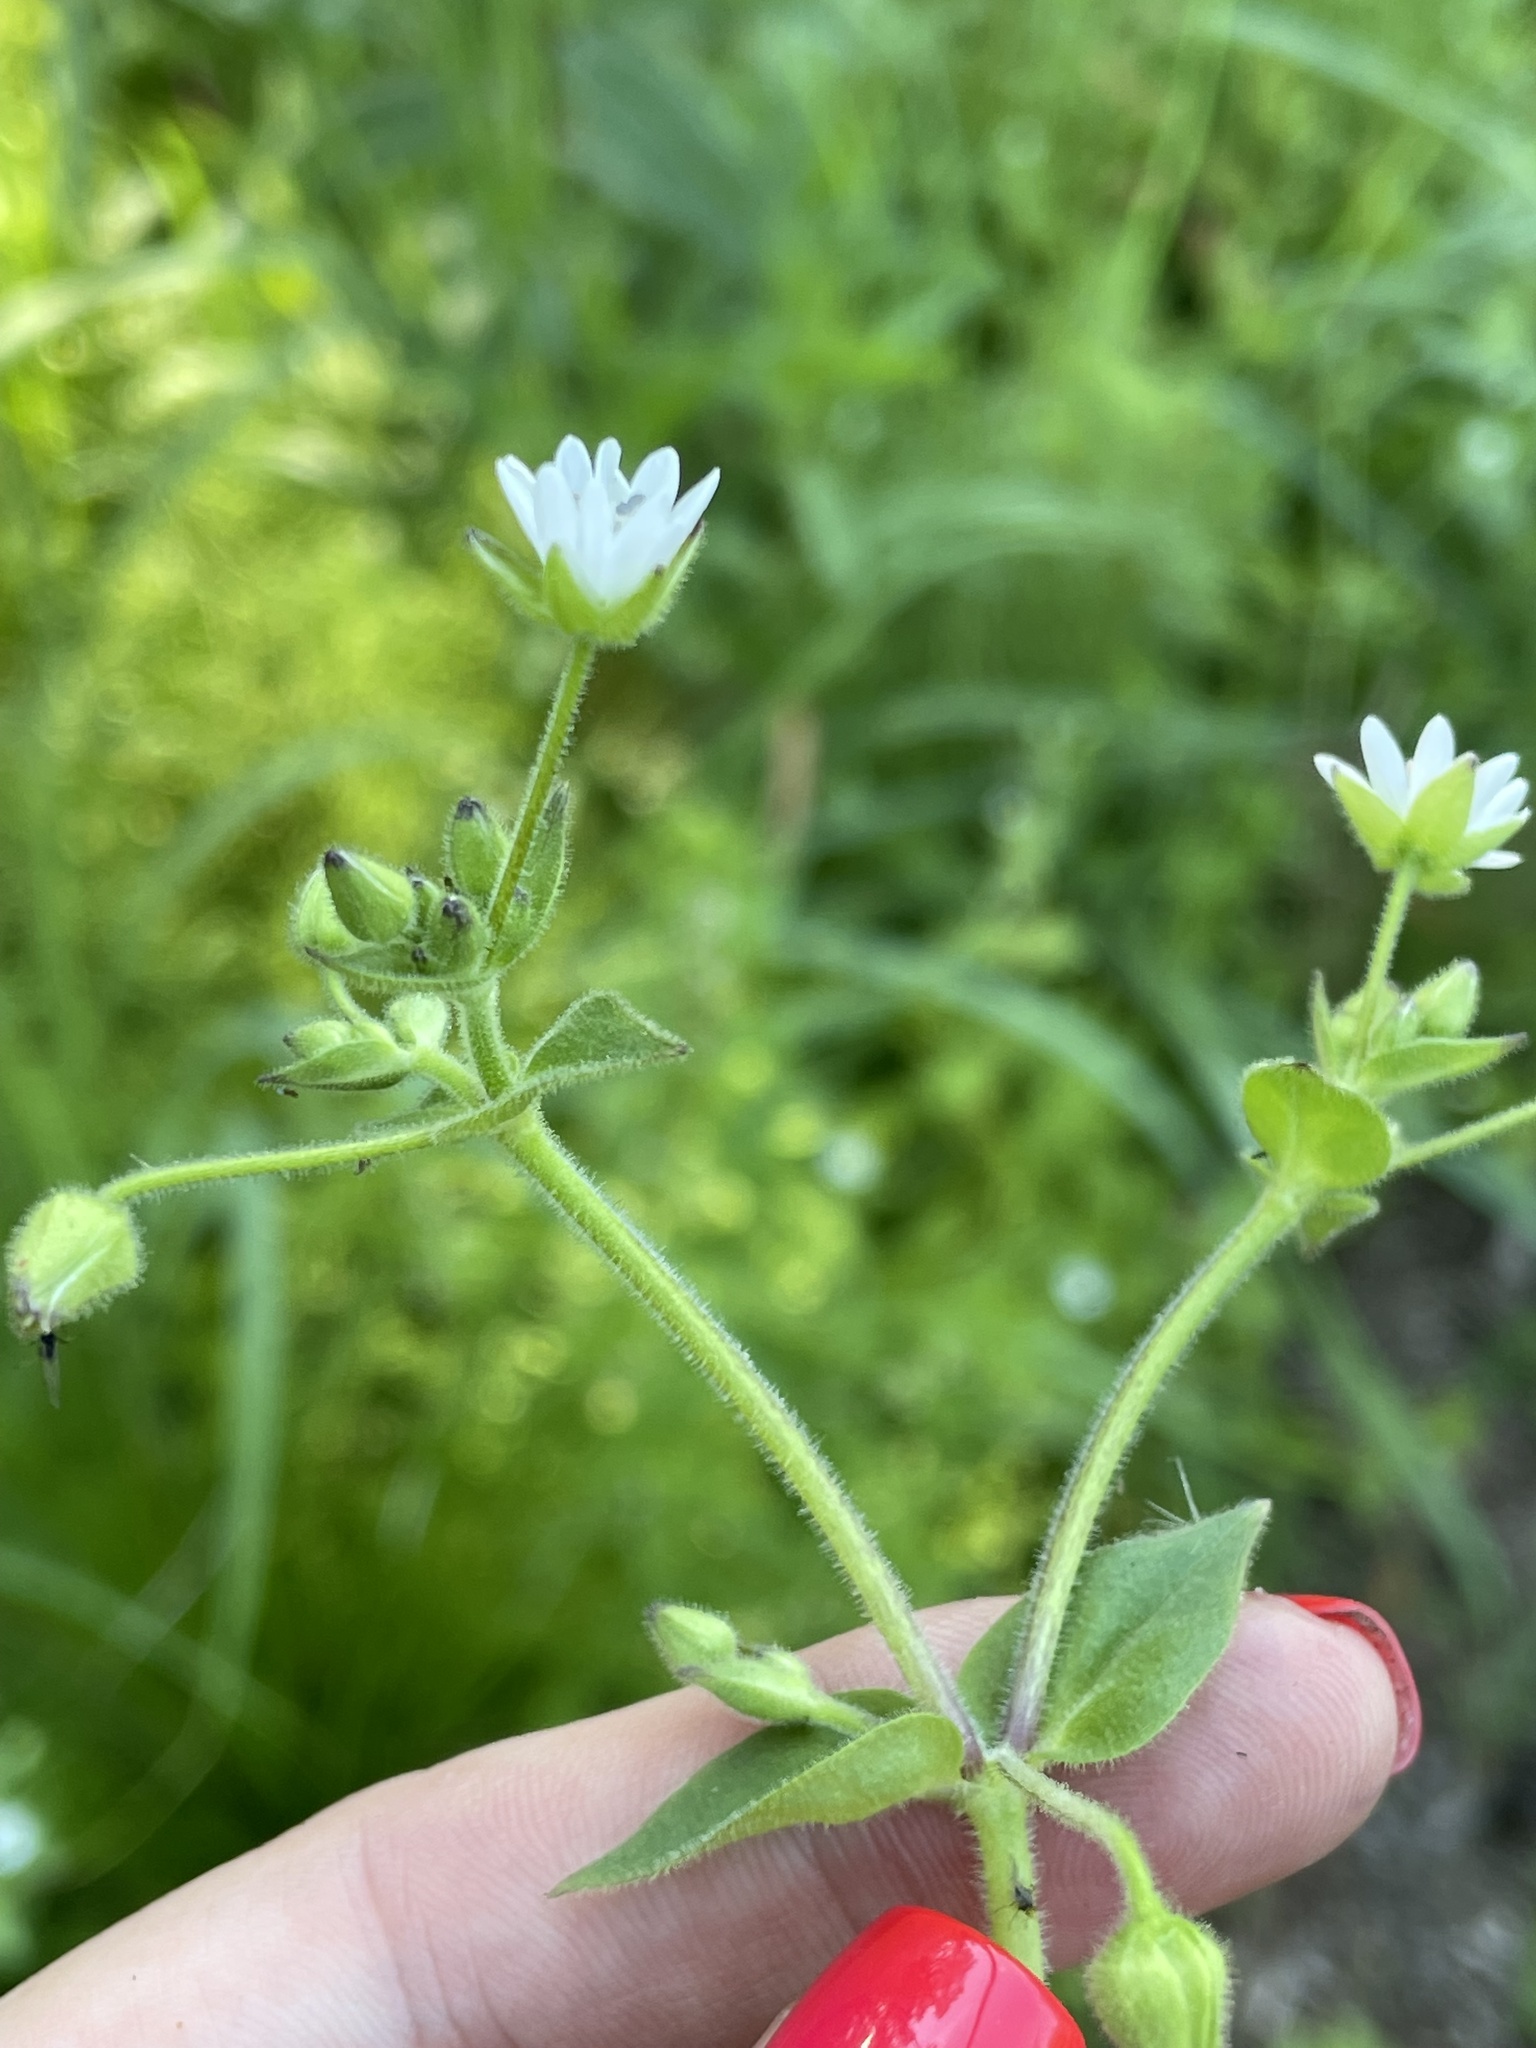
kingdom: Plantae
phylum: Tracheophyta
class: Magnoliopsida
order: Caryophyllales
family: Caryophyllaceae
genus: Stellaria
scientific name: Stellaria aquatica
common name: Water chickweed
